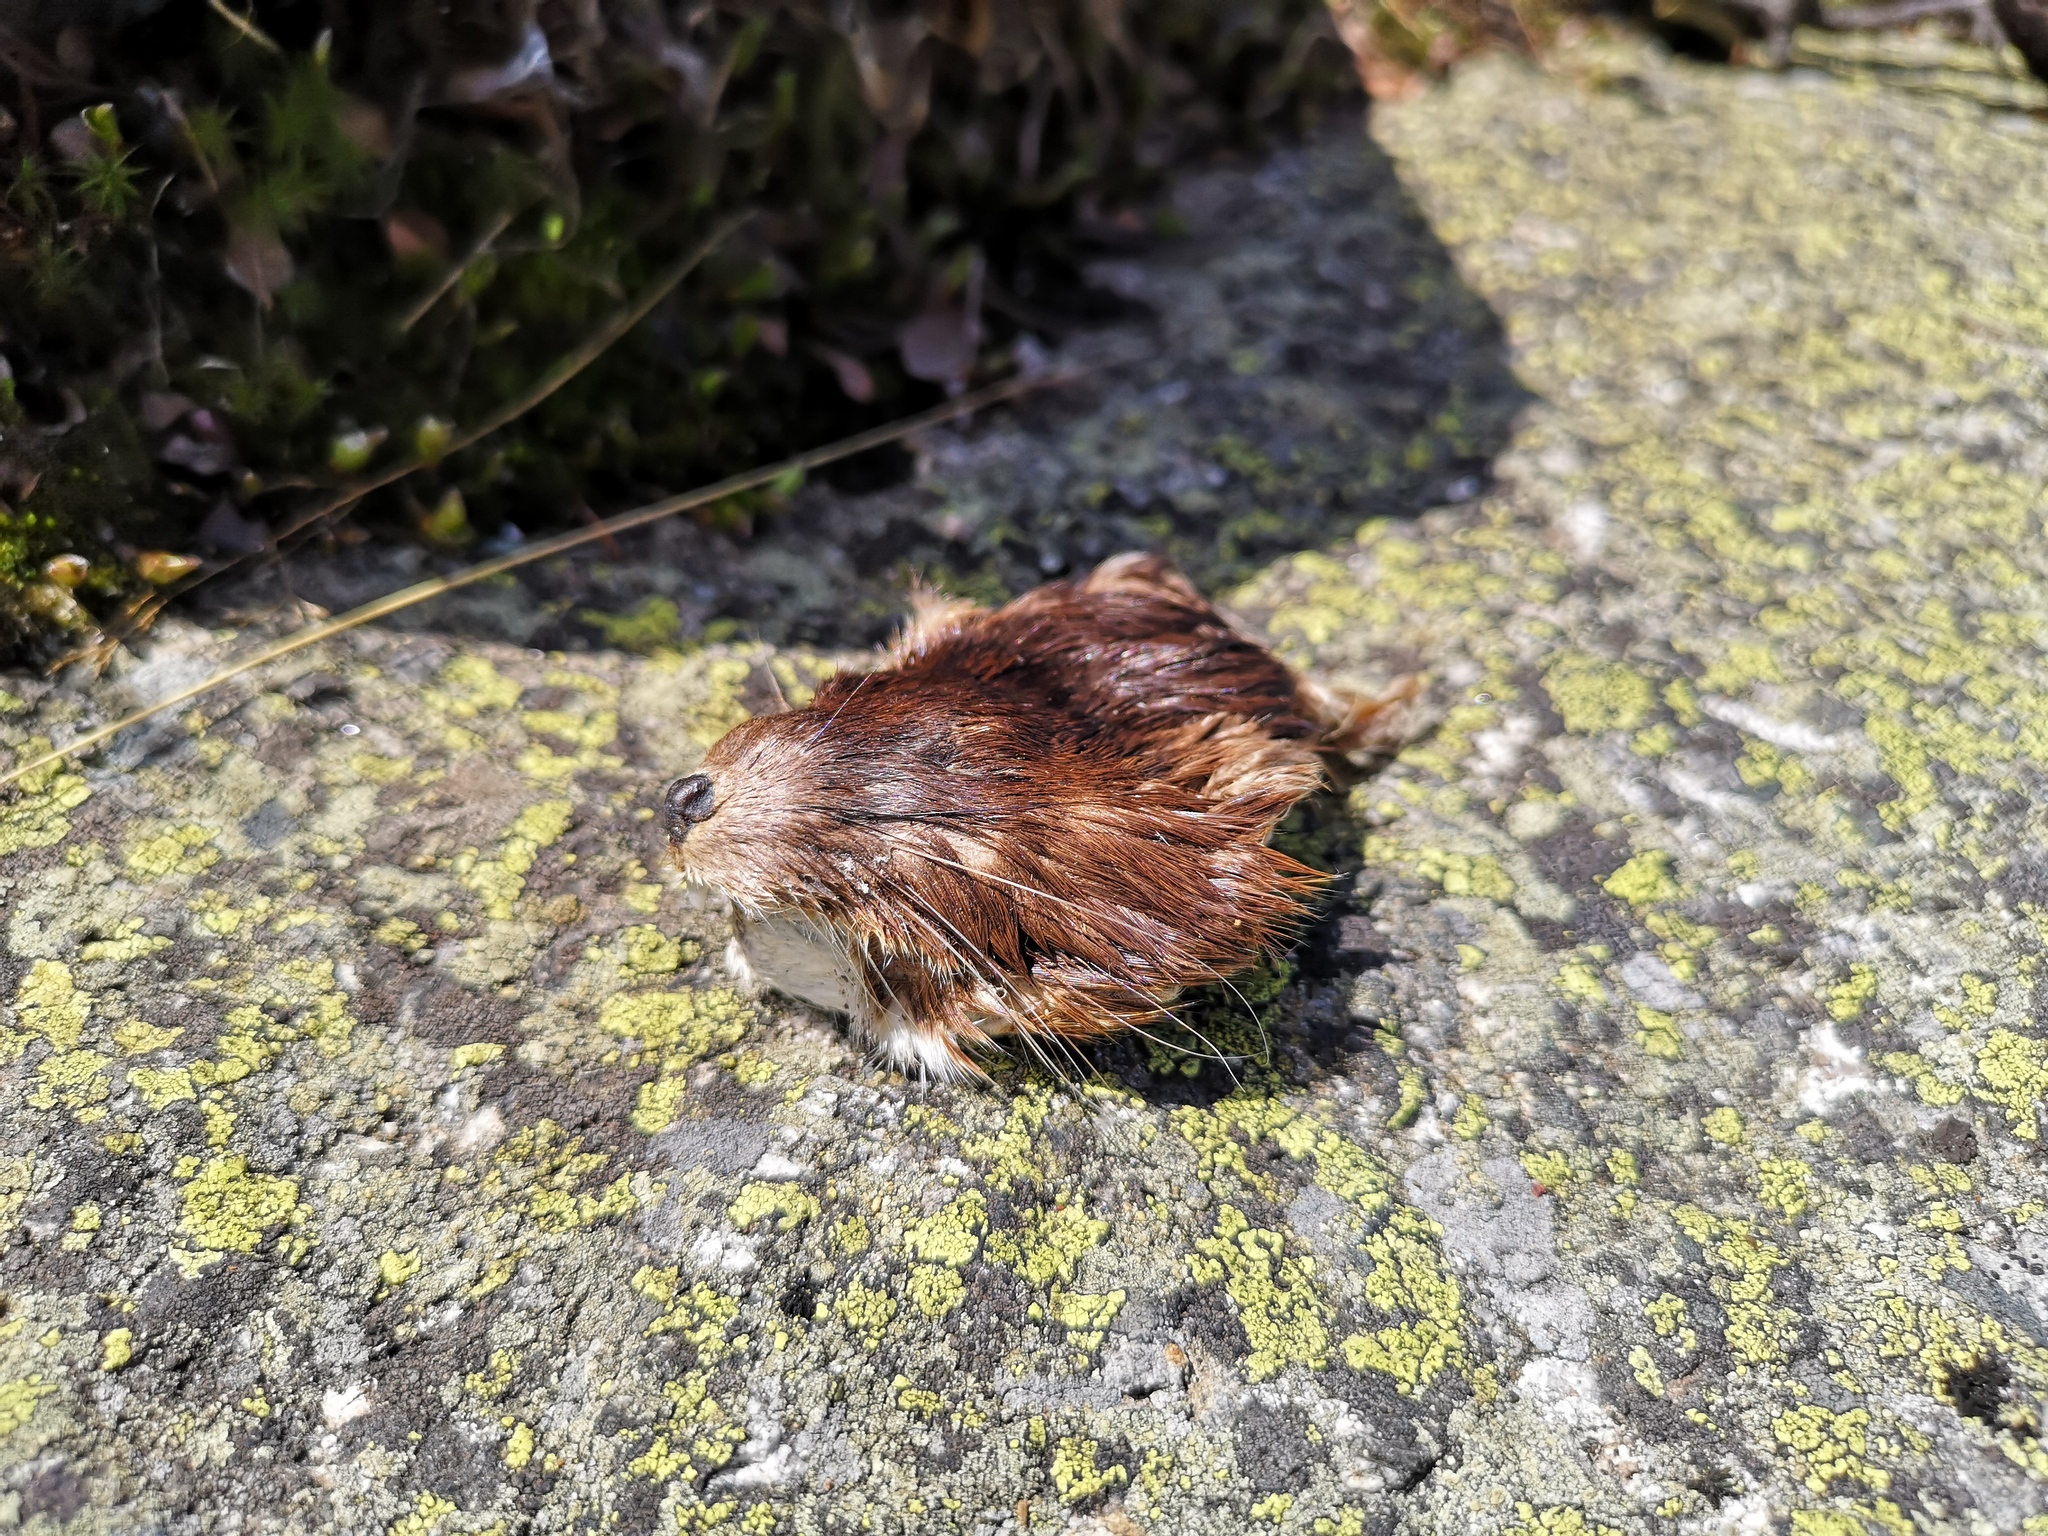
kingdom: Animalia
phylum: Chordata
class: Mammalia
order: Carnivora
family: Mustelidae
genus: Mustela
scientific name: Mustela
